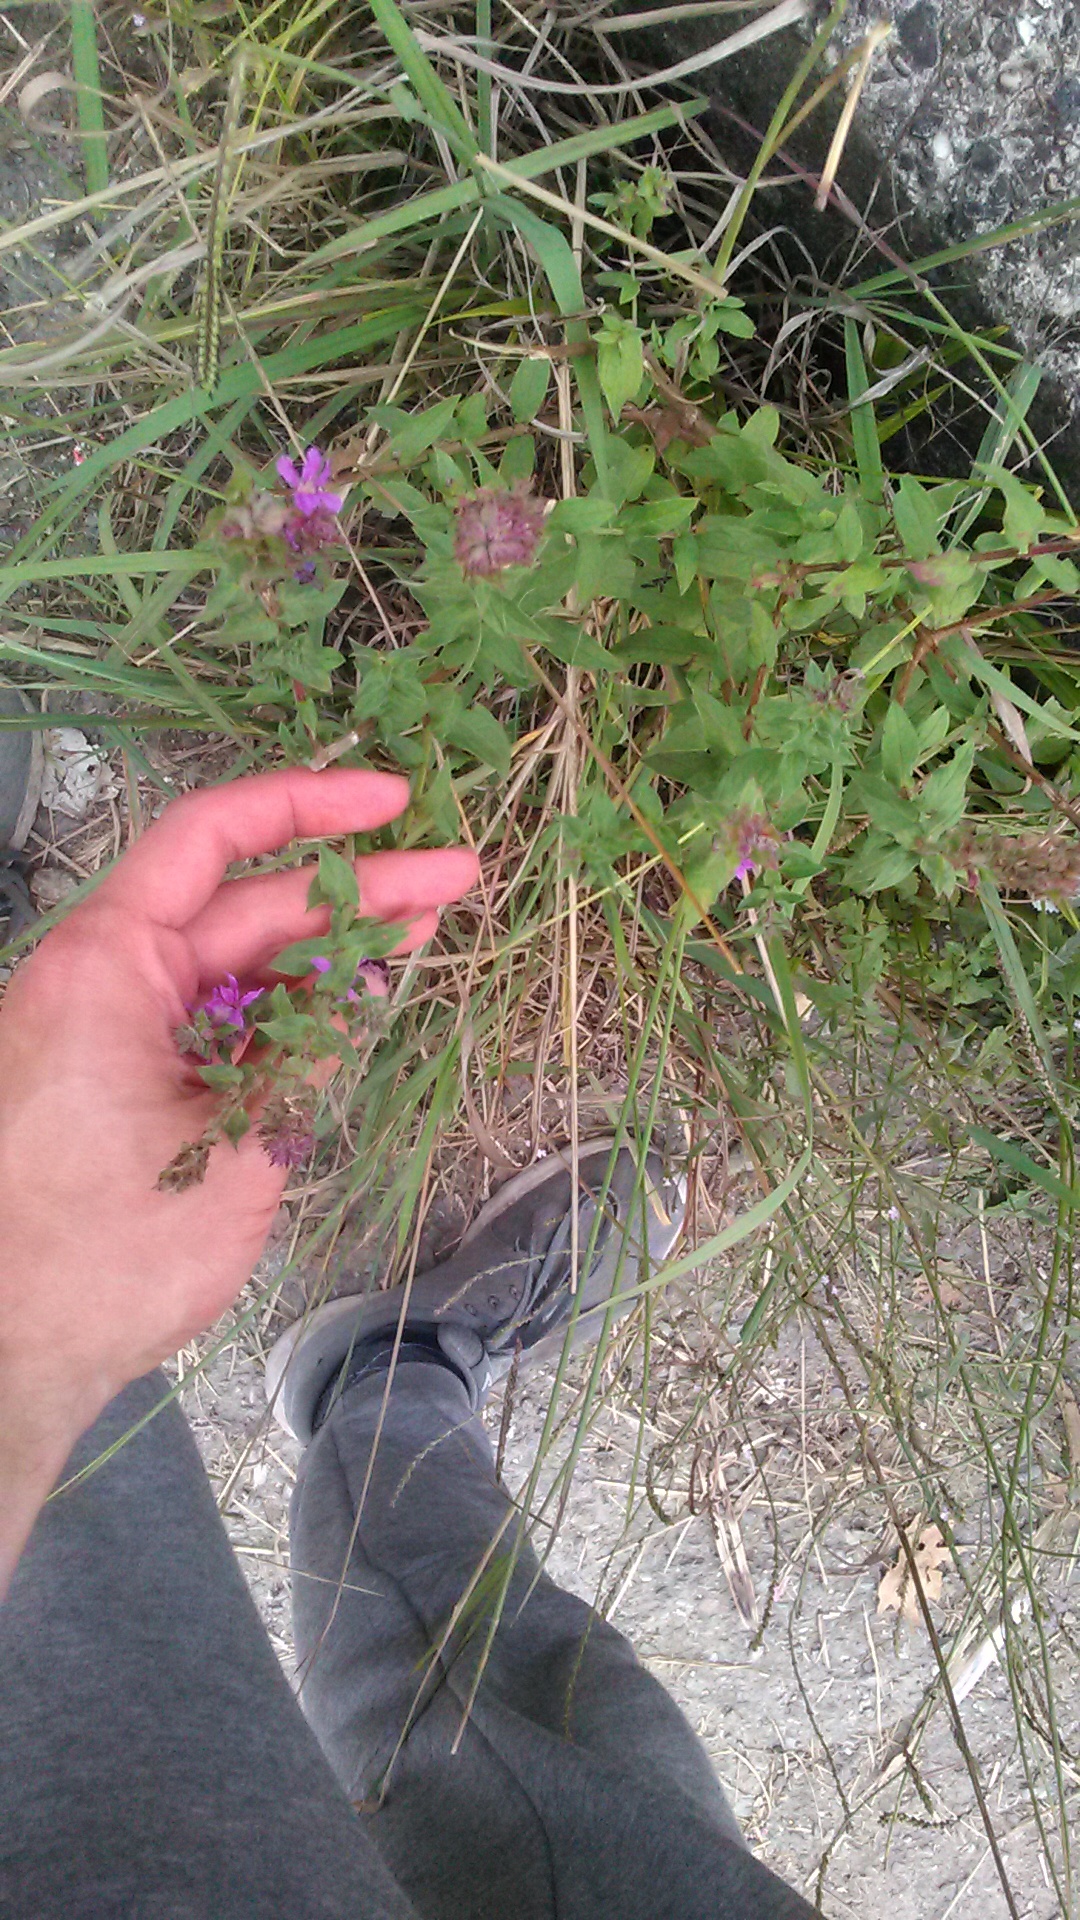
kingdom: Plantae
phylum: Tracheophyta
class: Magnoliopsida
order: Myrtales
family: Lythraceae
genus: Lythrum
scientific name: Lythrum salicaria
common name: Purple loosestrife
